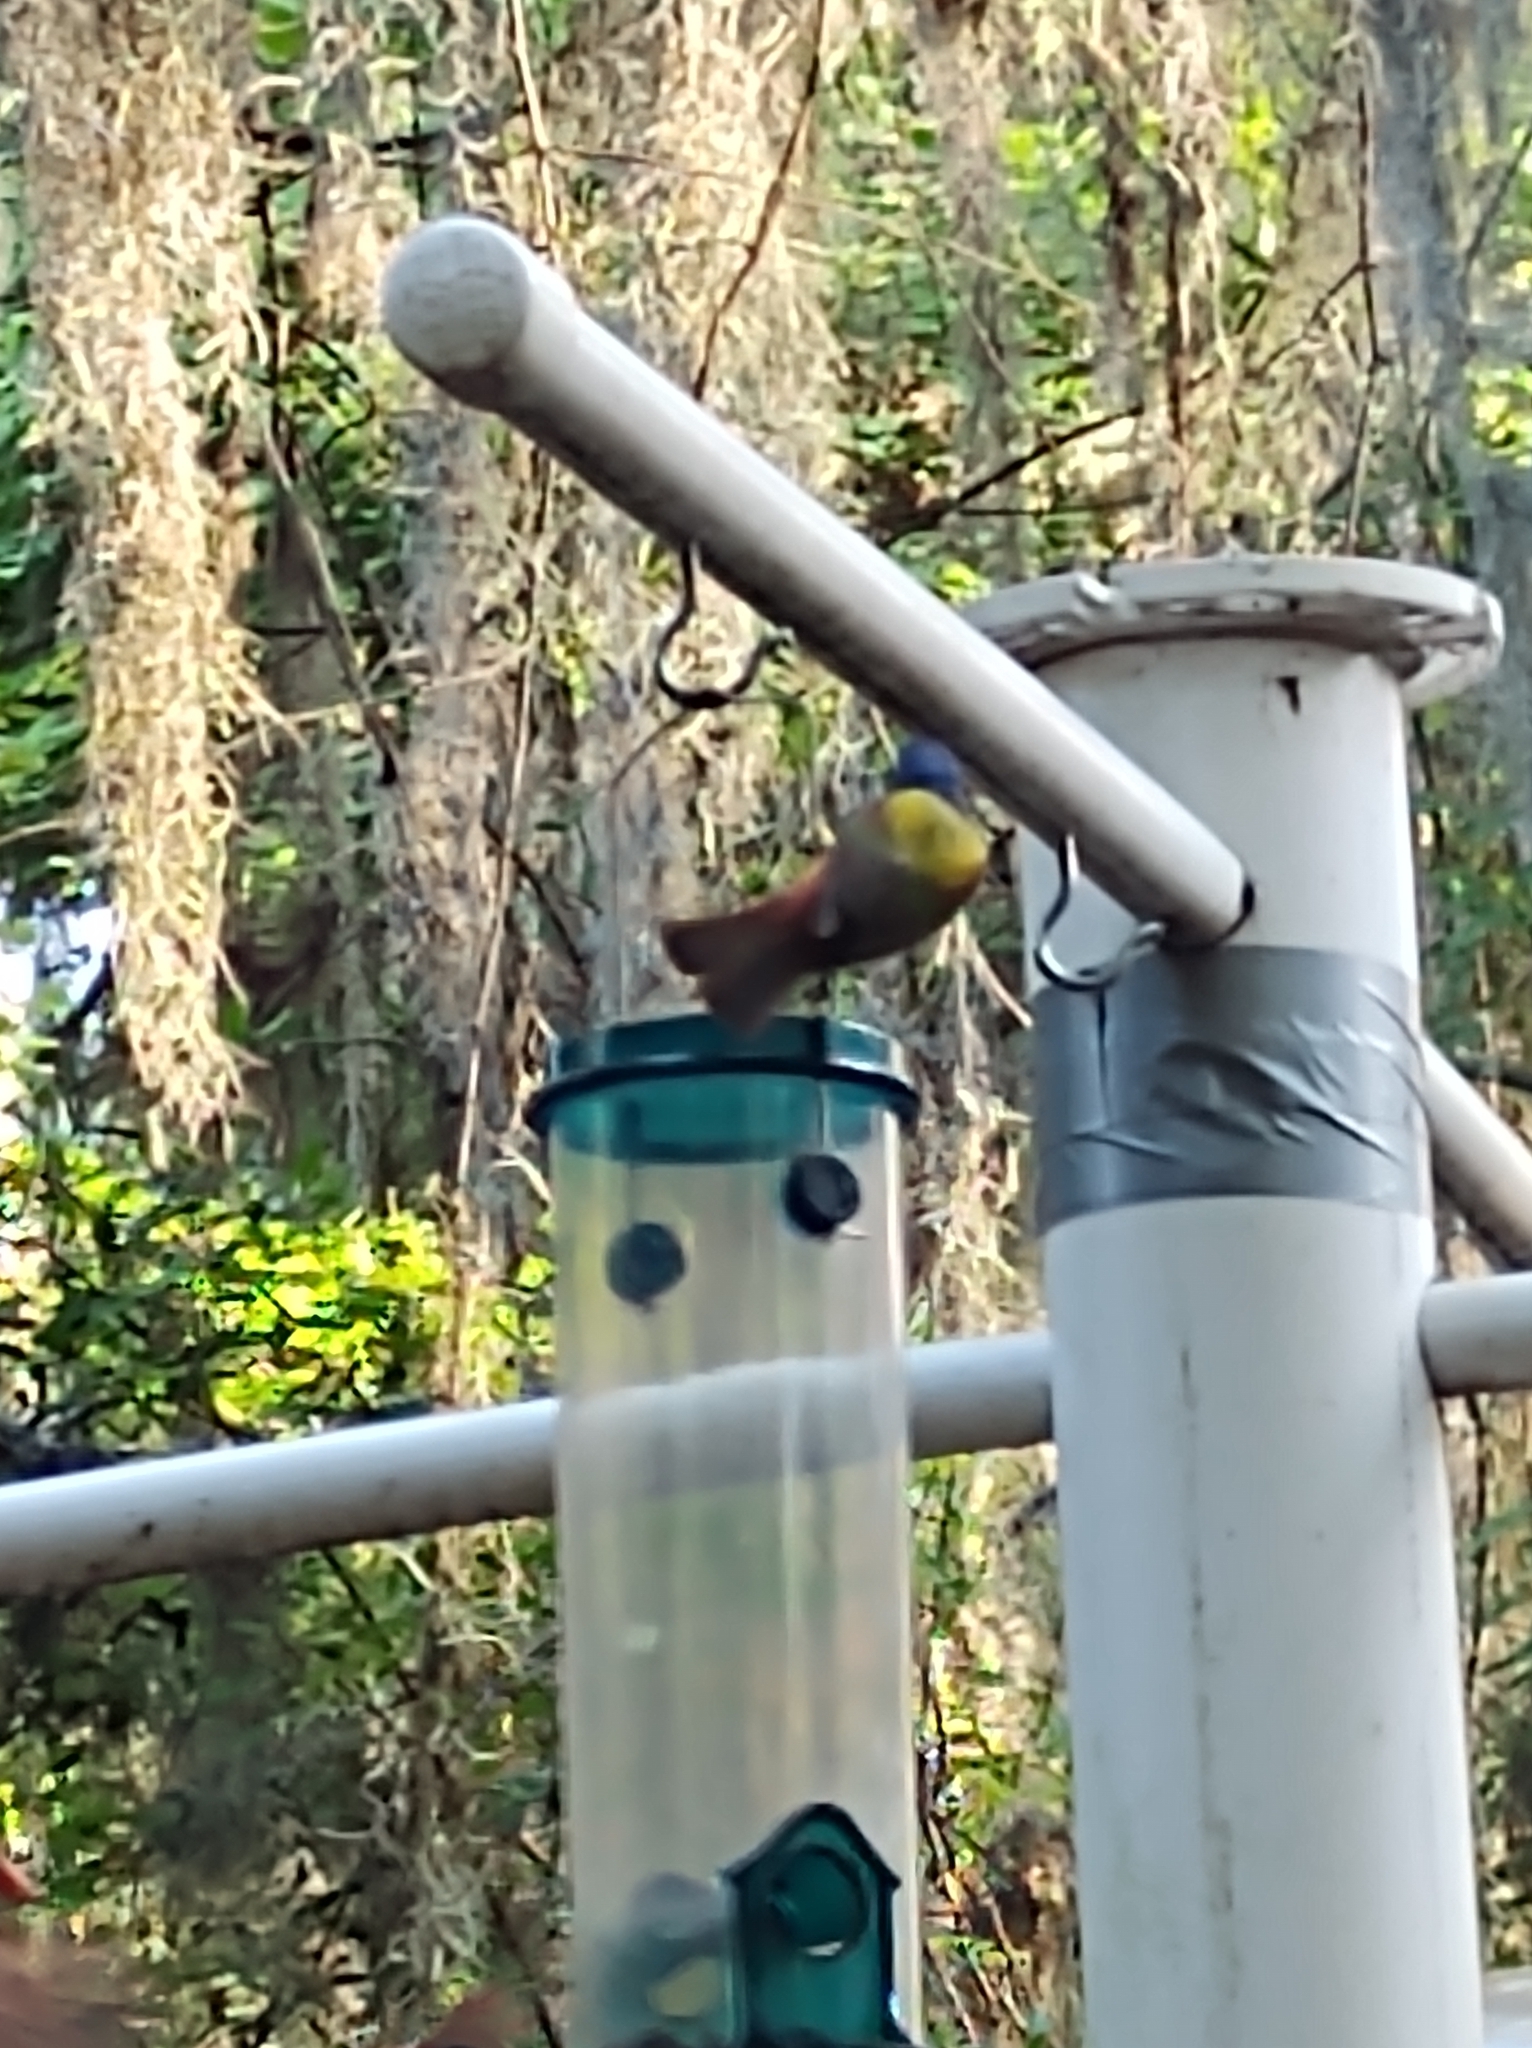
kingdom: Animalia
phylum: Chordata
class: Aves
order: Passeriformes
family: Cardinalidae
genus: Passerina
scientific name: Passerina ciris
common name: Painted bunting
